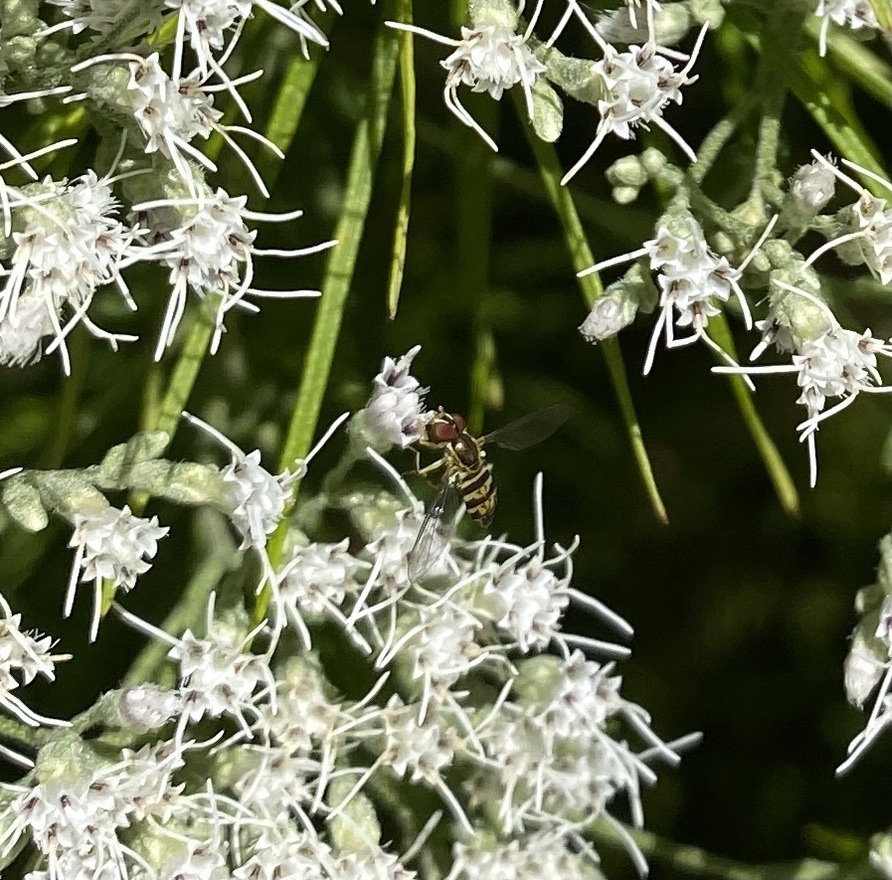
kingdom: Animalia
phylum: Arthropoda
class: Insecta
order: Diptera
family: Syrphidae
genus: Toxomerus
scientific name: Toxomerus geminatus
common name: Eastern calligrapher
